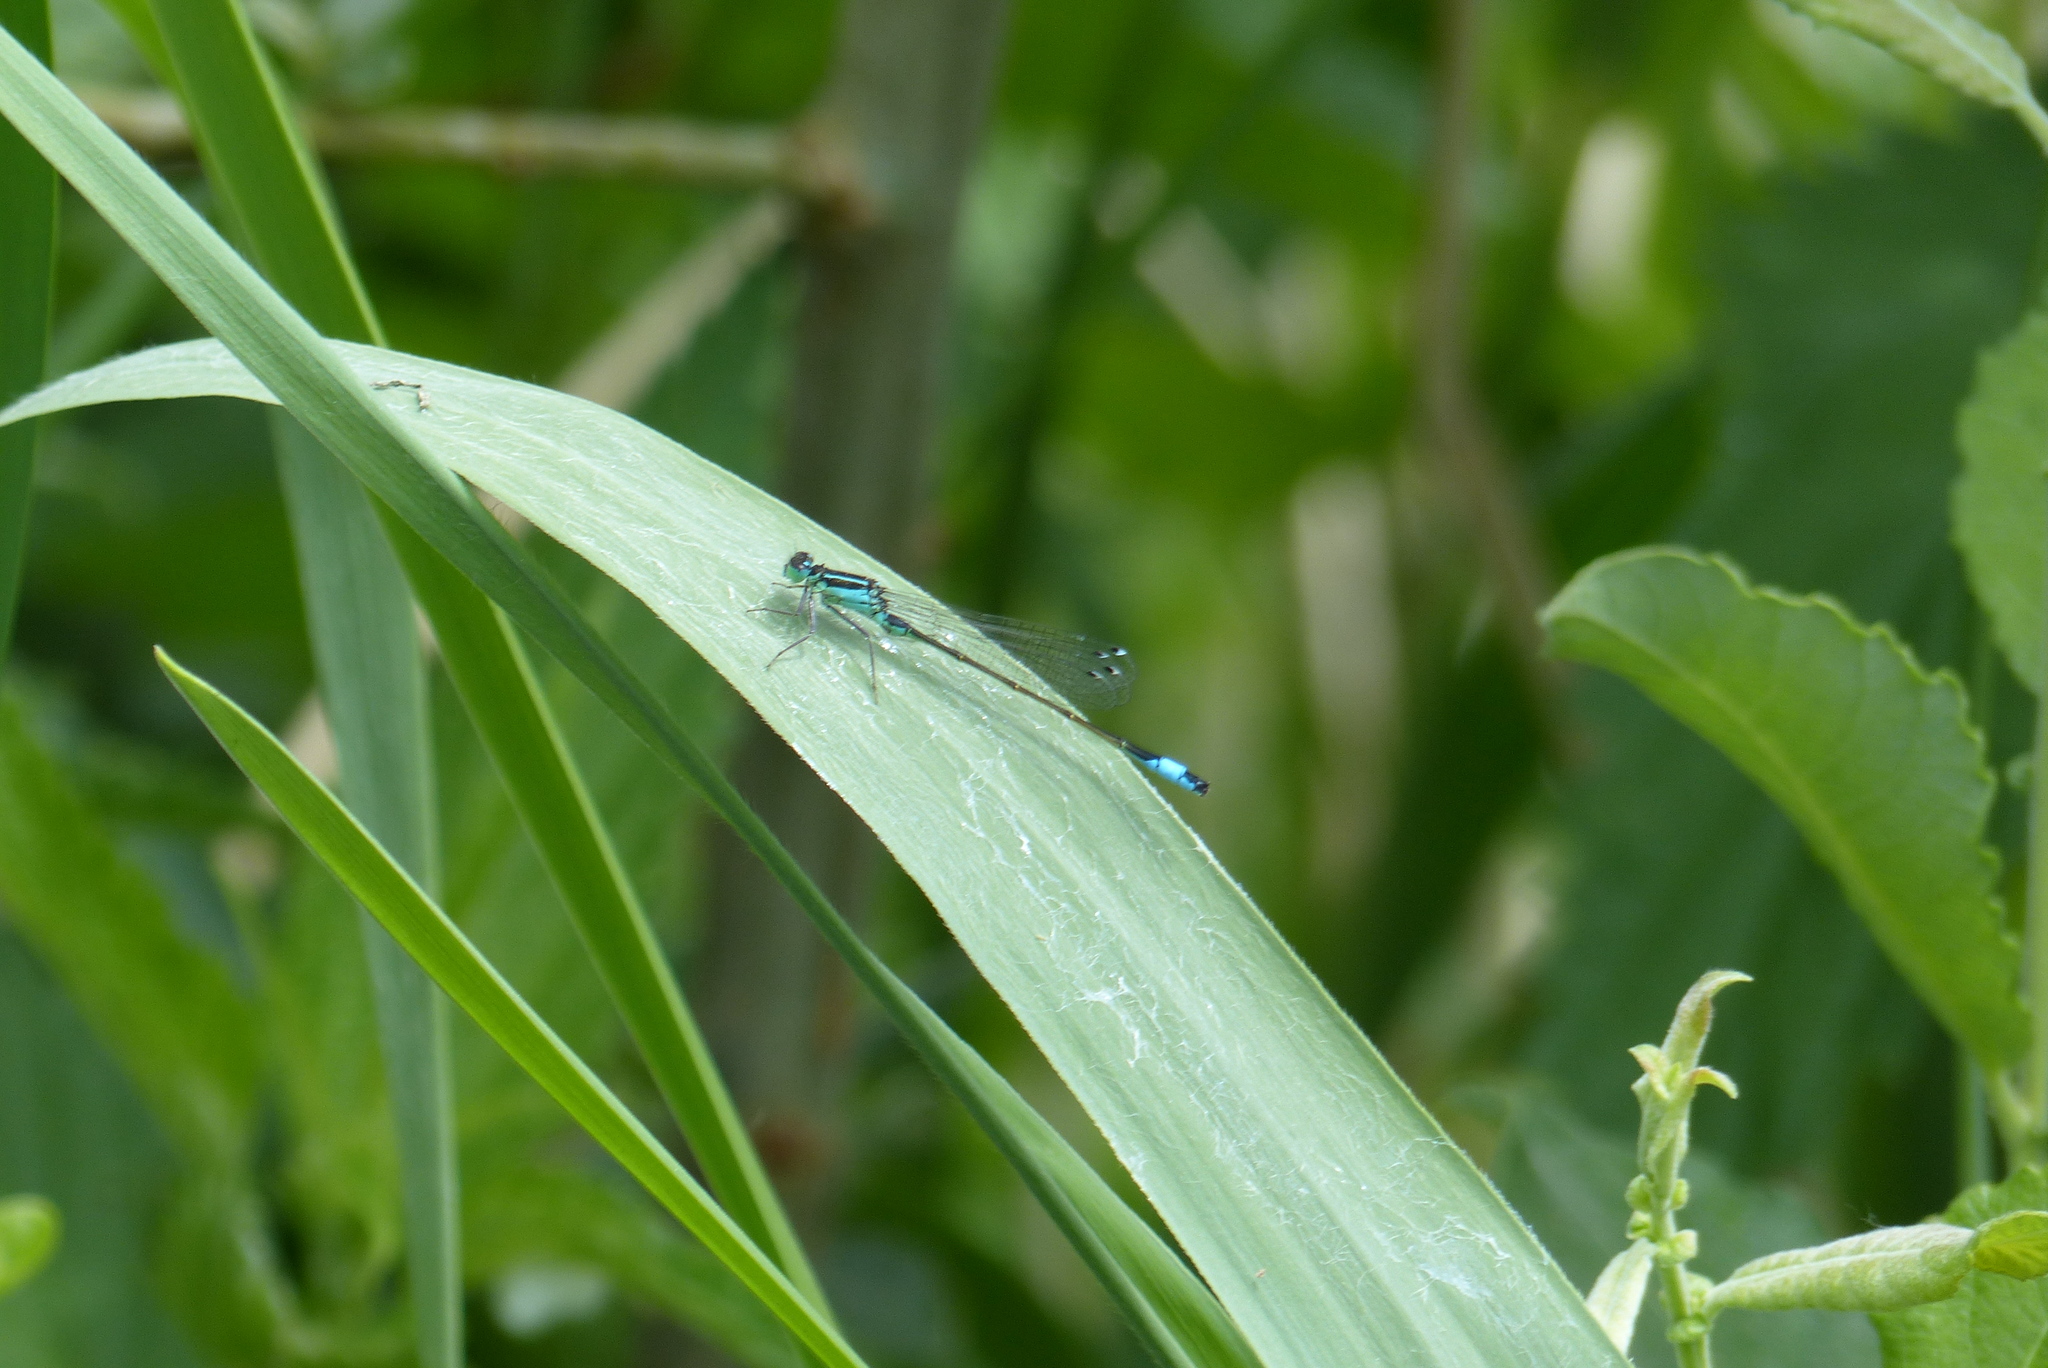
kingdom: Animalia
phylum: Arthropoda
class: Insecta
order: Odonata
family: Coenagrionidae
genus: Ischnura
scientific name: Ischnura elegans
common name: Blue-tailed damselfly
